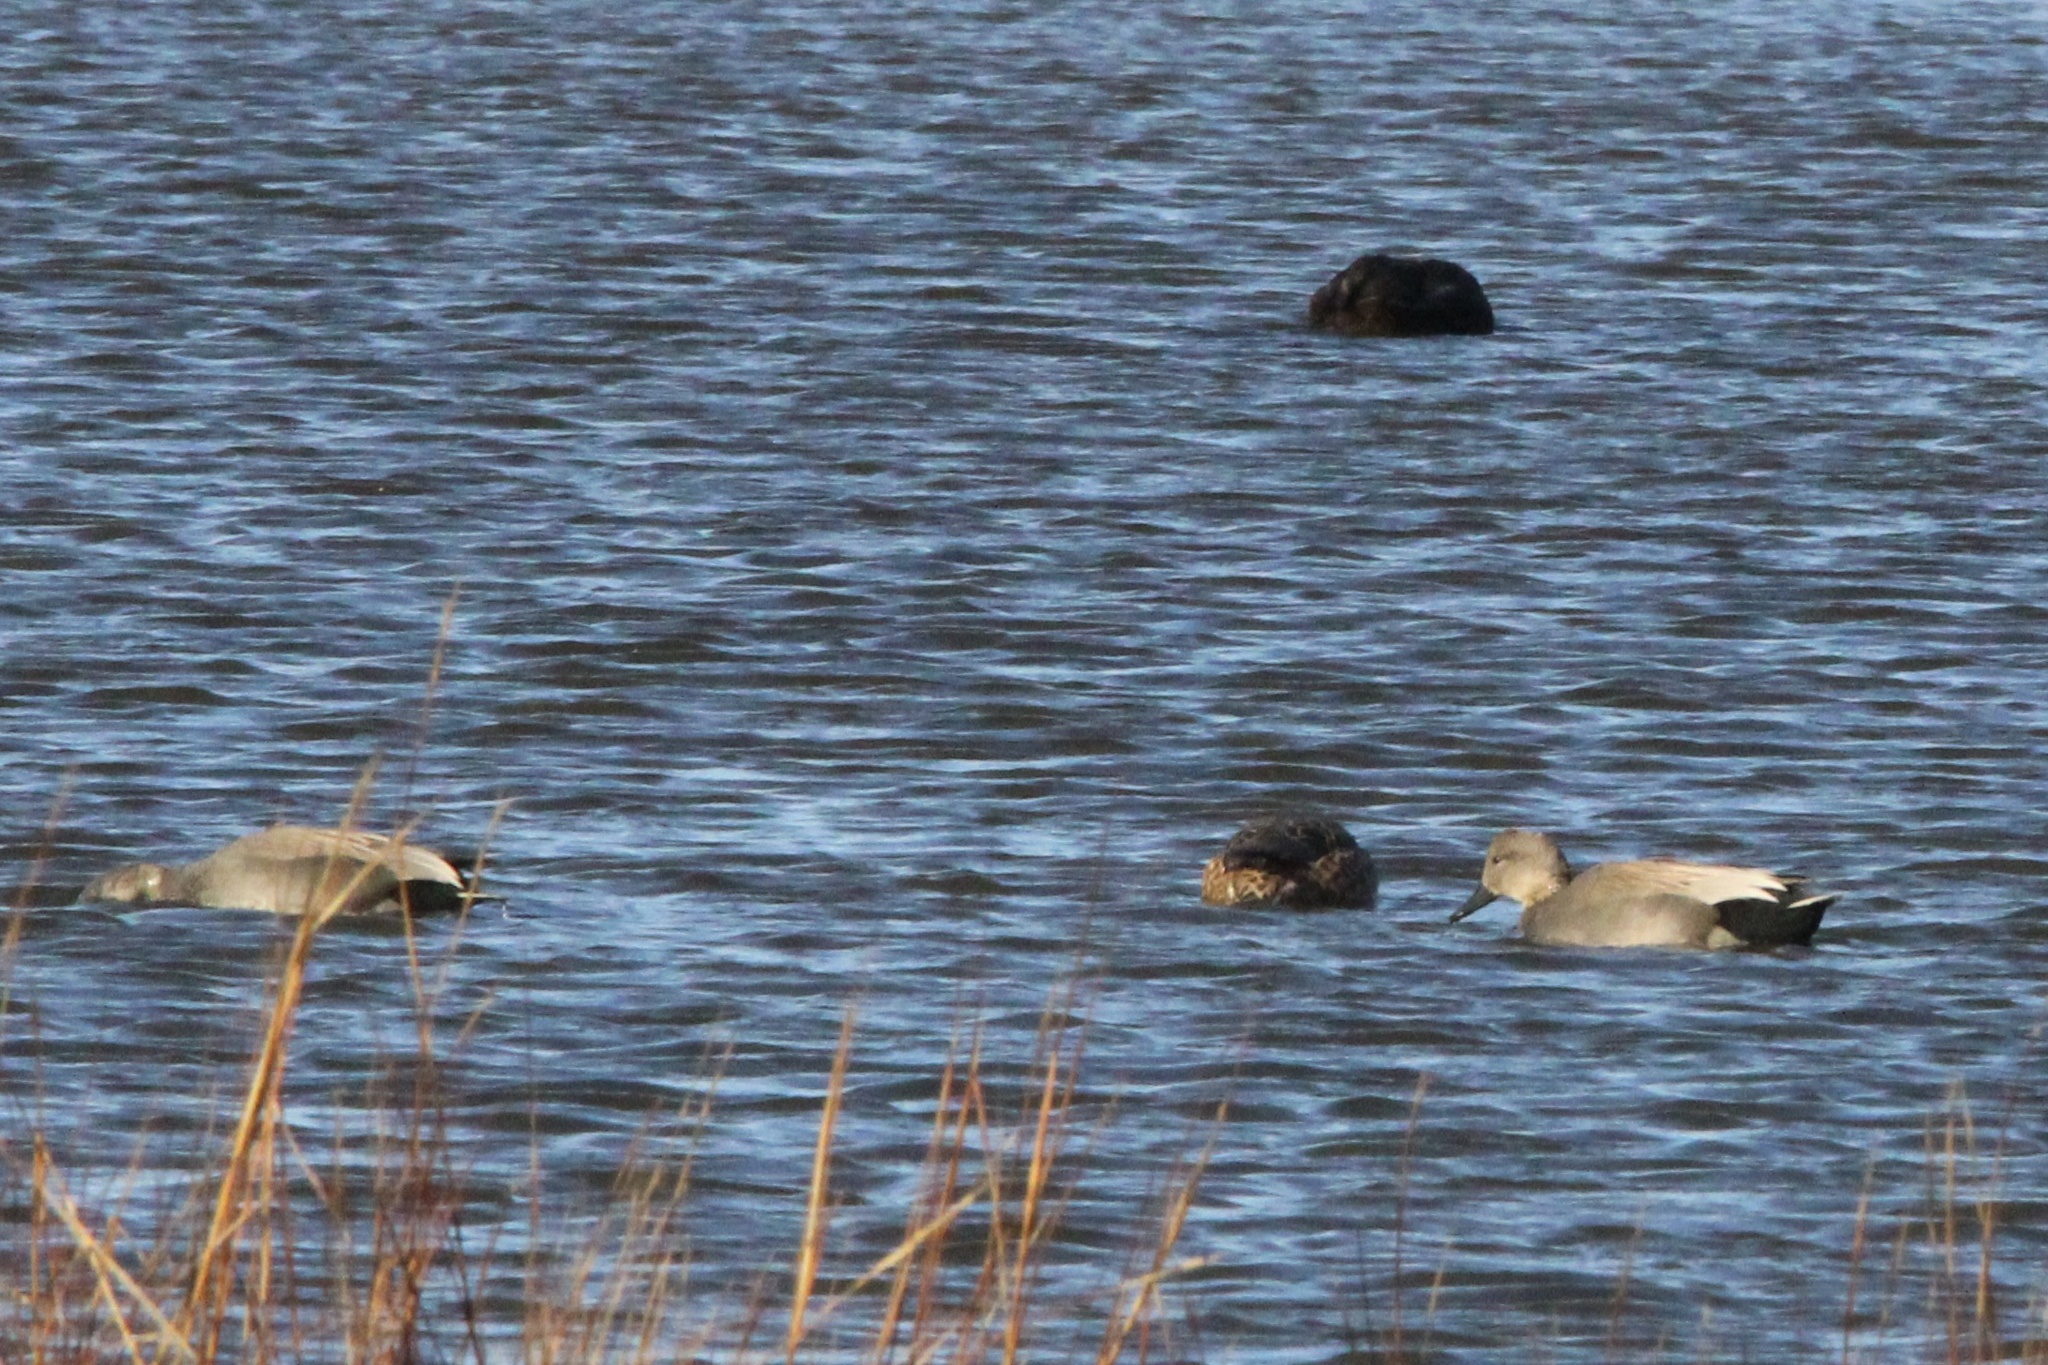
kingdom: Animalia
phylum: Chordata
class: Aves
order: Anseriformes
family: Anatidae
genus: Mareca
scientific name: Mareca strepera
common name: Gadwall
